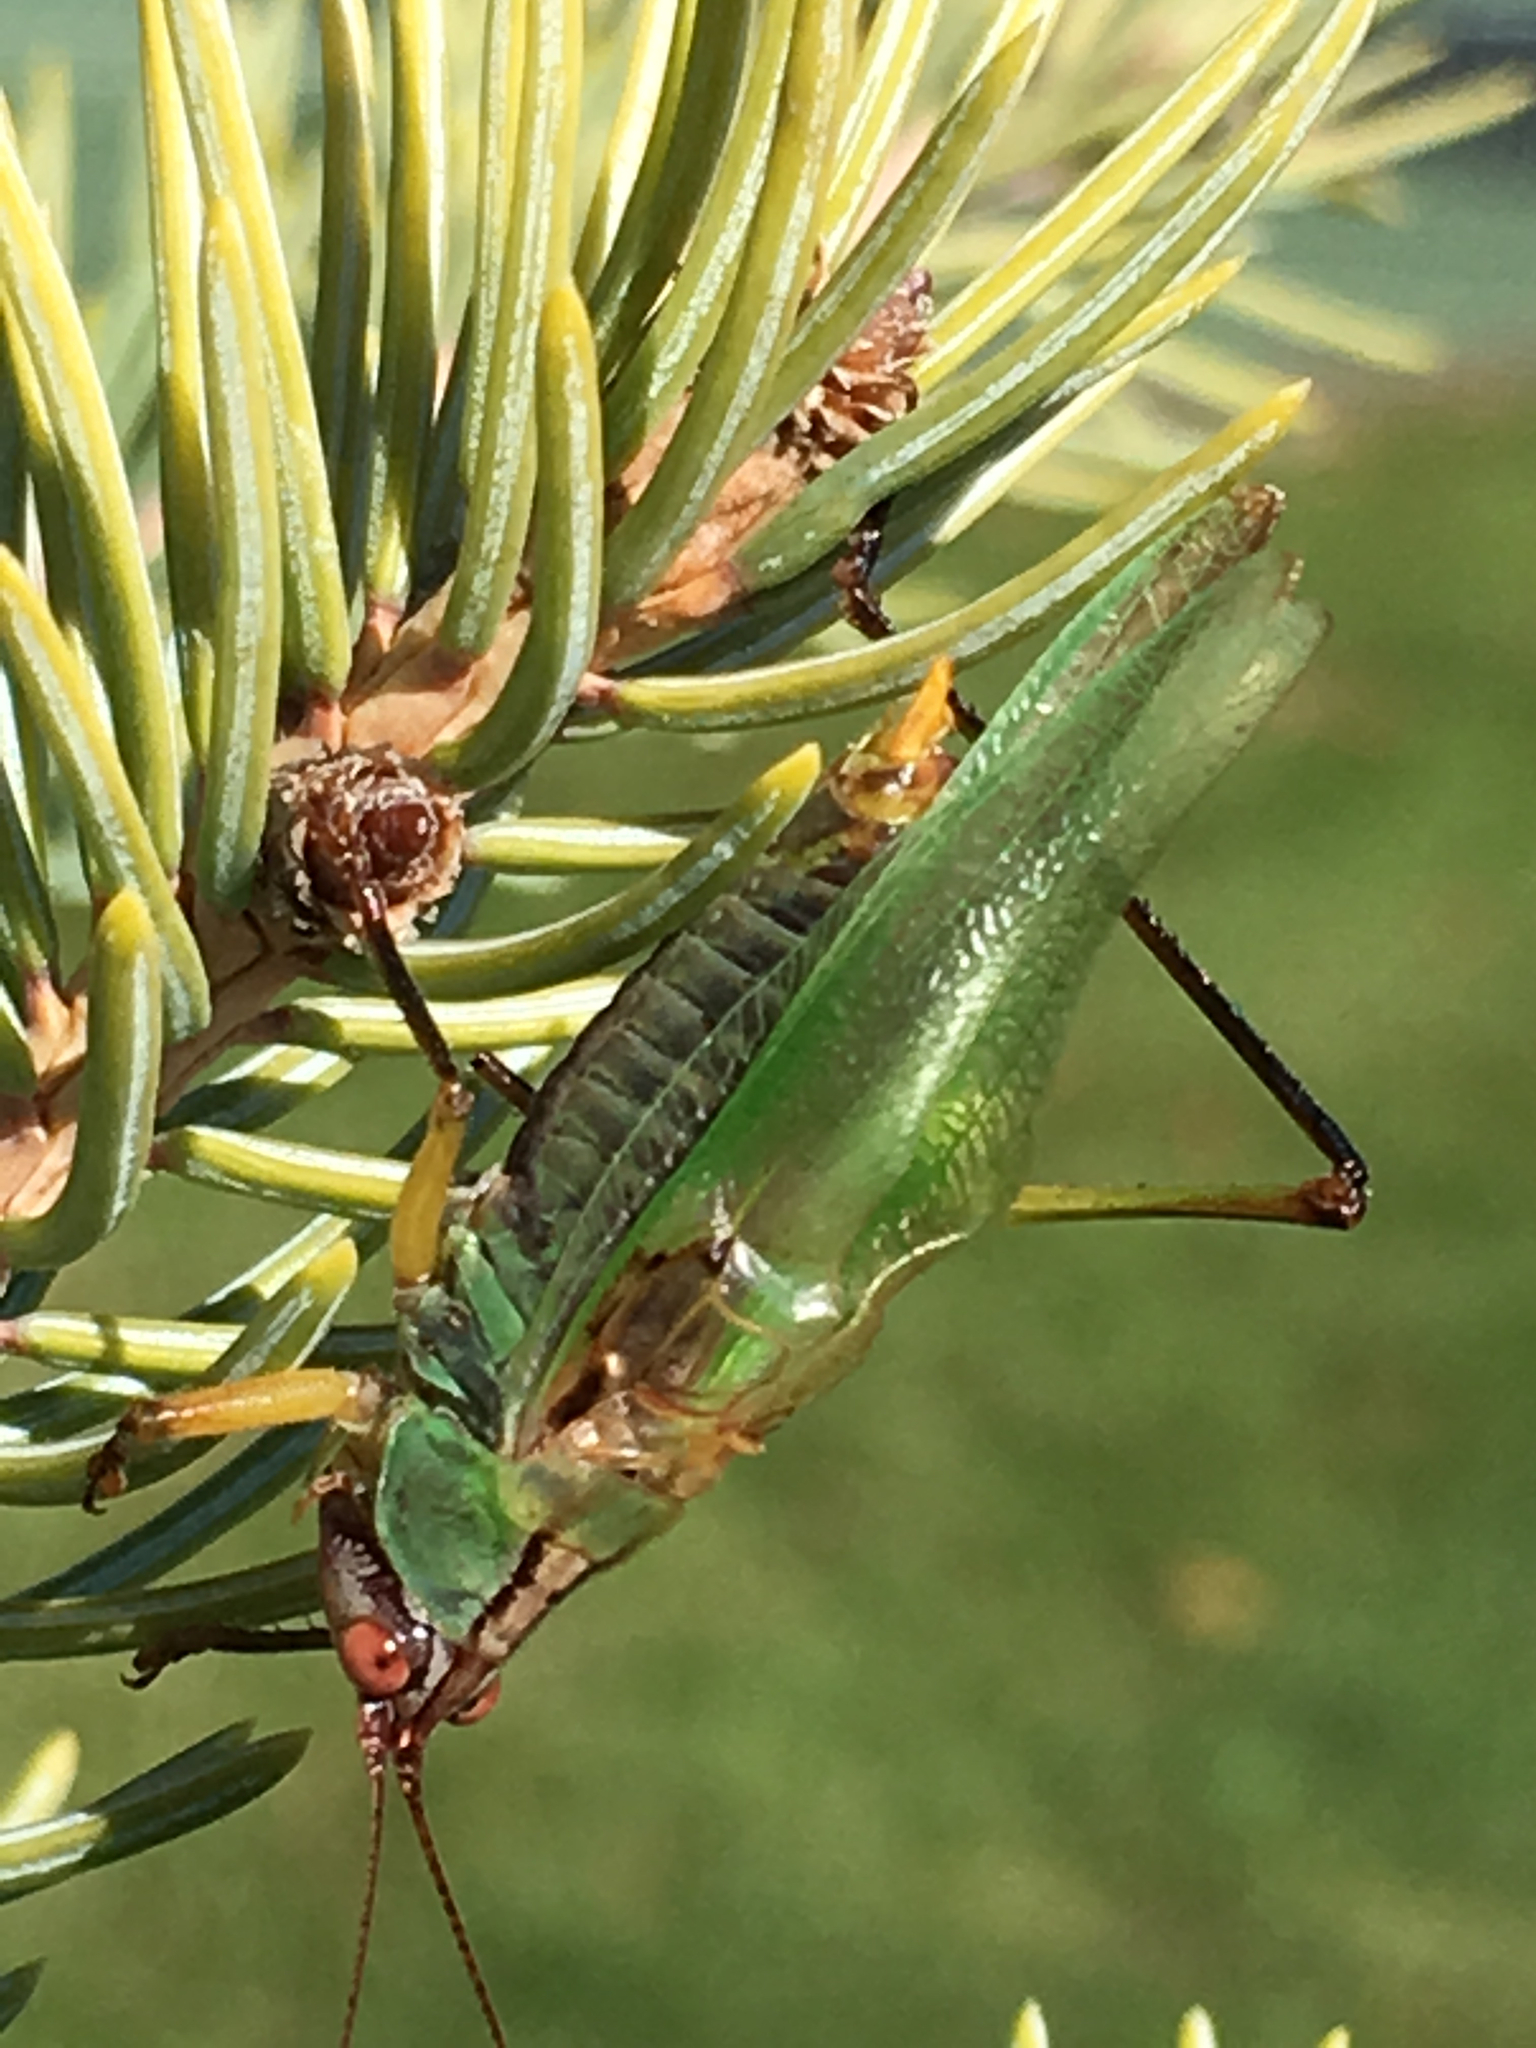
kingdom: Animalia
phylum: Arthropoda
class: Insecta
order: Orthoptera
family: Tettigoniidae
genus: Orchelimum
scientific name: Orchelimum nigripes
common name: Black-legged meadow katydid
